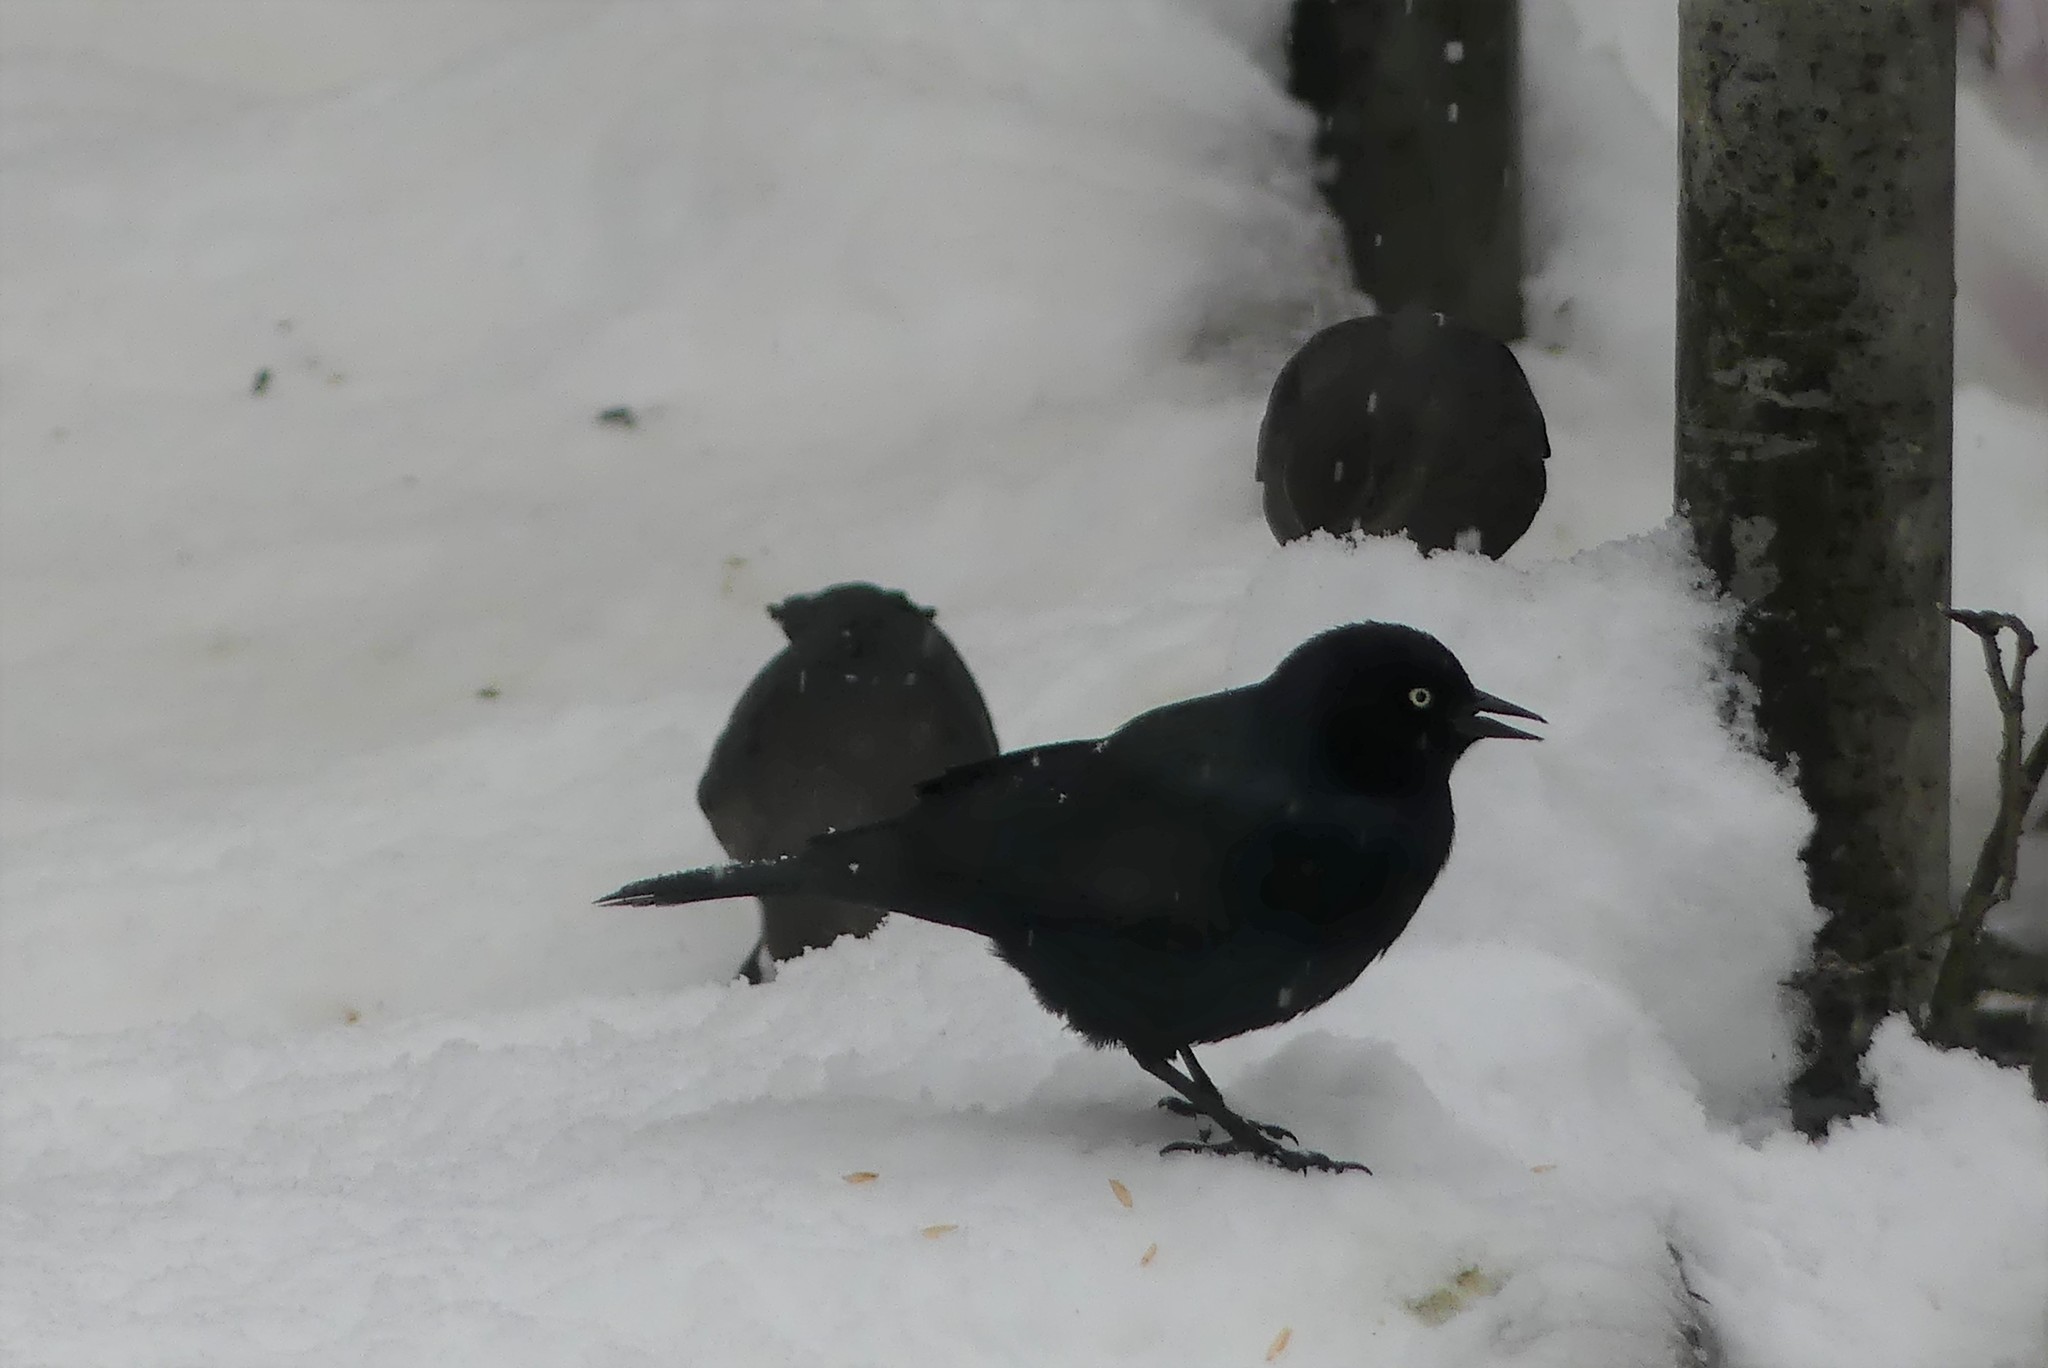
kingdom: Animalia
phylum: Chordata
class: Aves
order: Passeriformes
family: Icteridae
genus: Euphagus
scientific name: Euphagus cyanocephalus
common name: Brewer's blackbird
